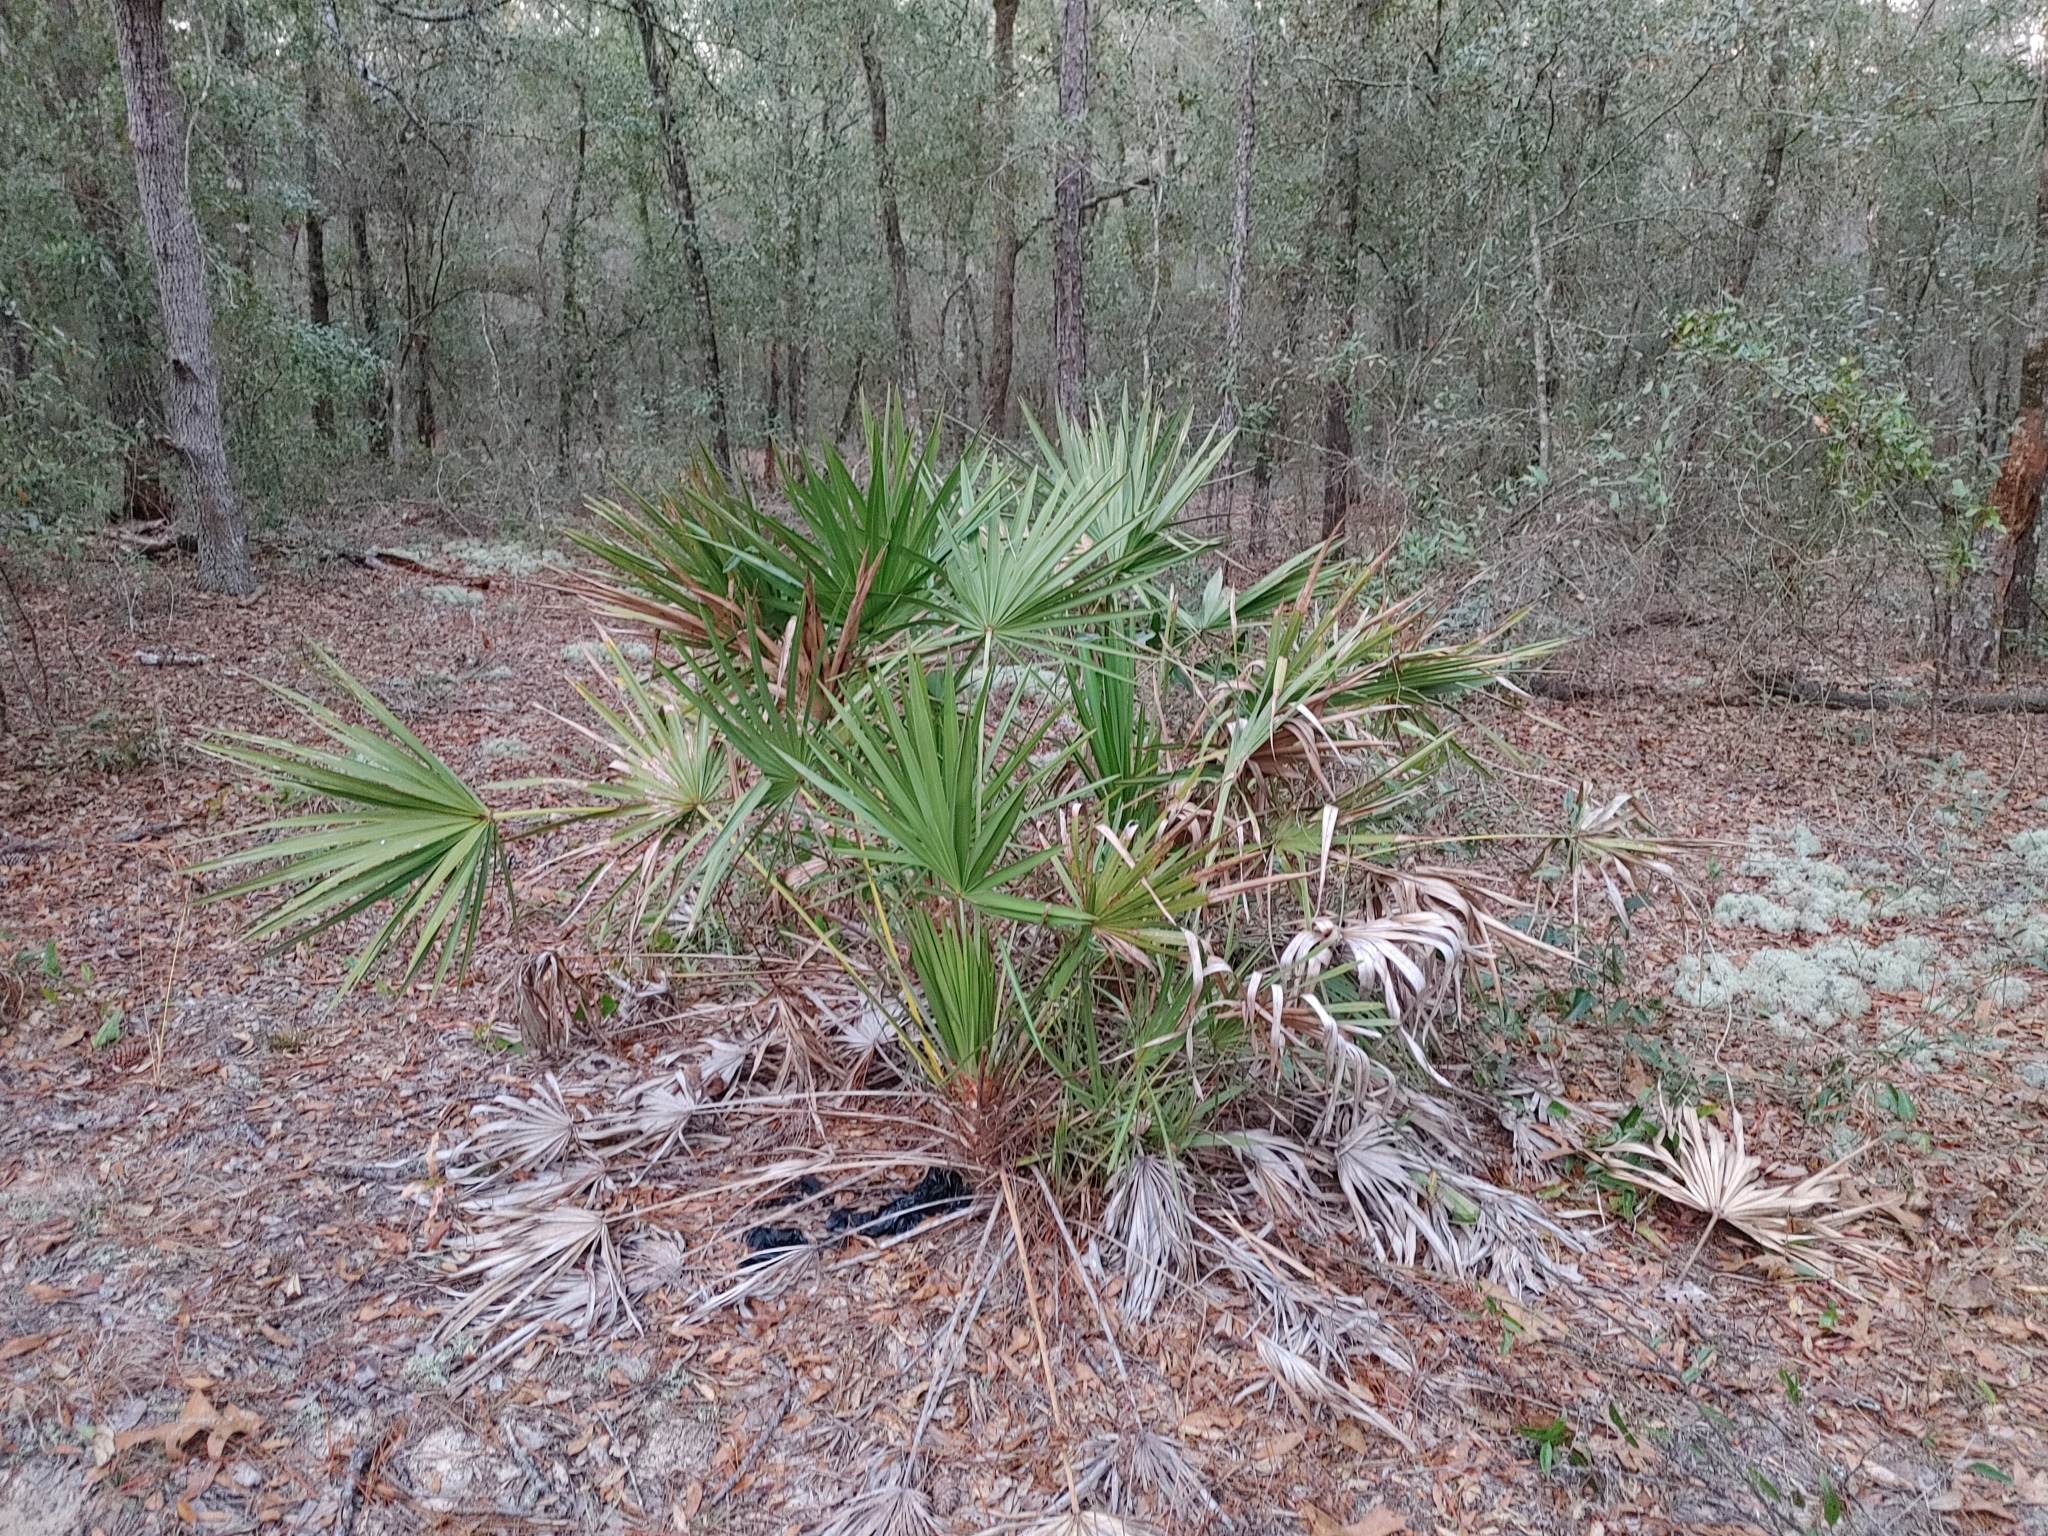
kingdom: Plantae
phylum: Tracheophyta
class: Liliopsida
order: Arecales
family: Arecaceae
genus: Serenoa
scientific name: Serenoa repens
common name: Saw-palmetto
